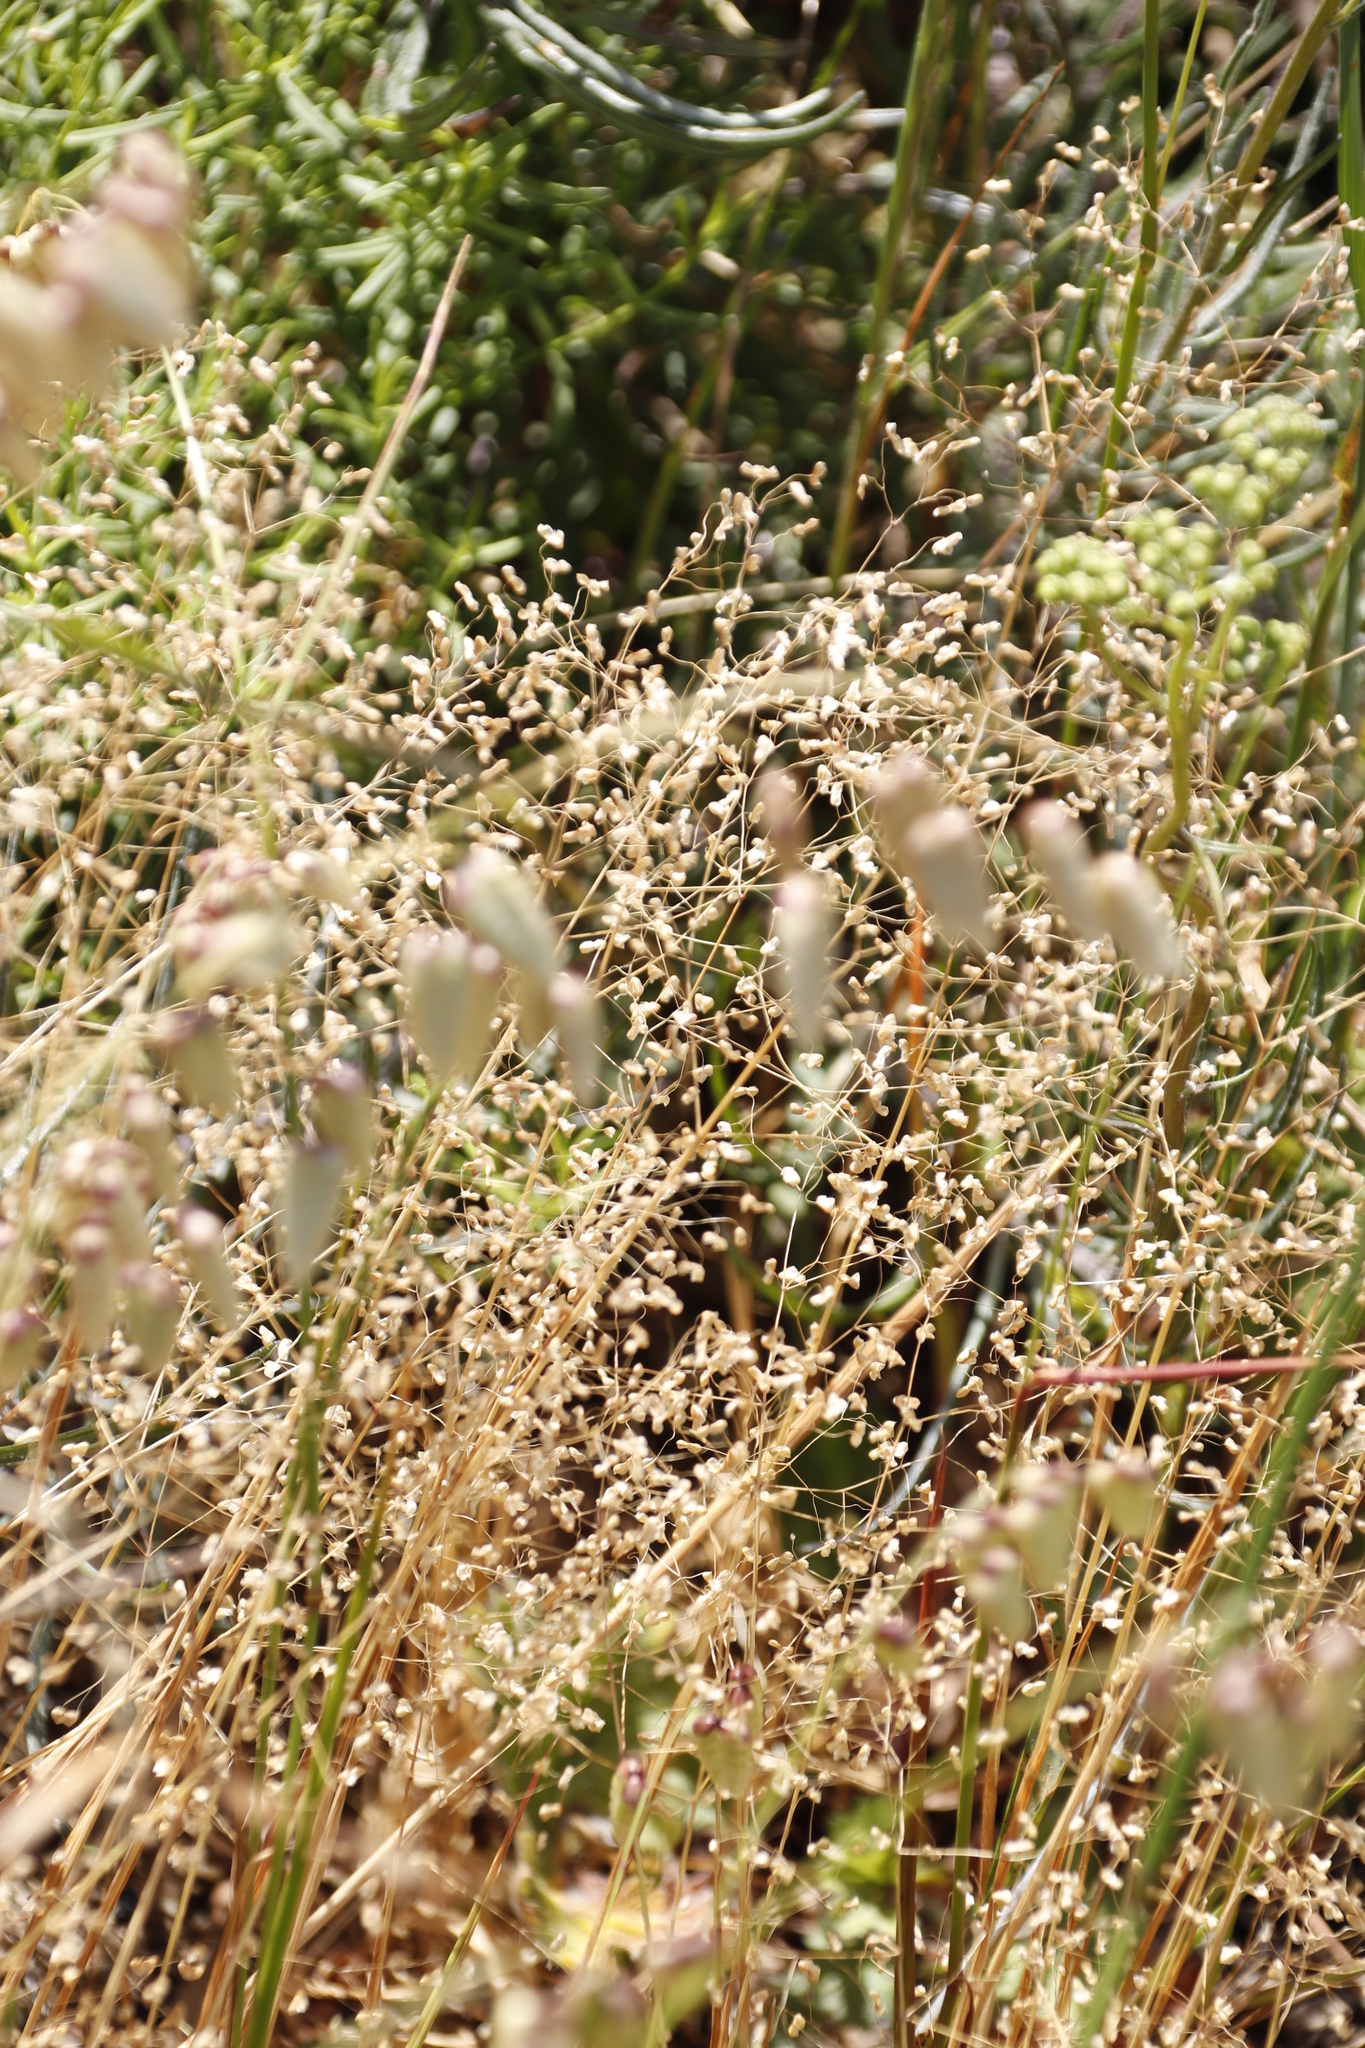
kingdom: Plantae
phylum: Tracheophyta
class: Liliopsida
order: Poales
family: Poaceae
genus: Briza
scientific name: Briza minor
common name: Lesser quaking-grass
